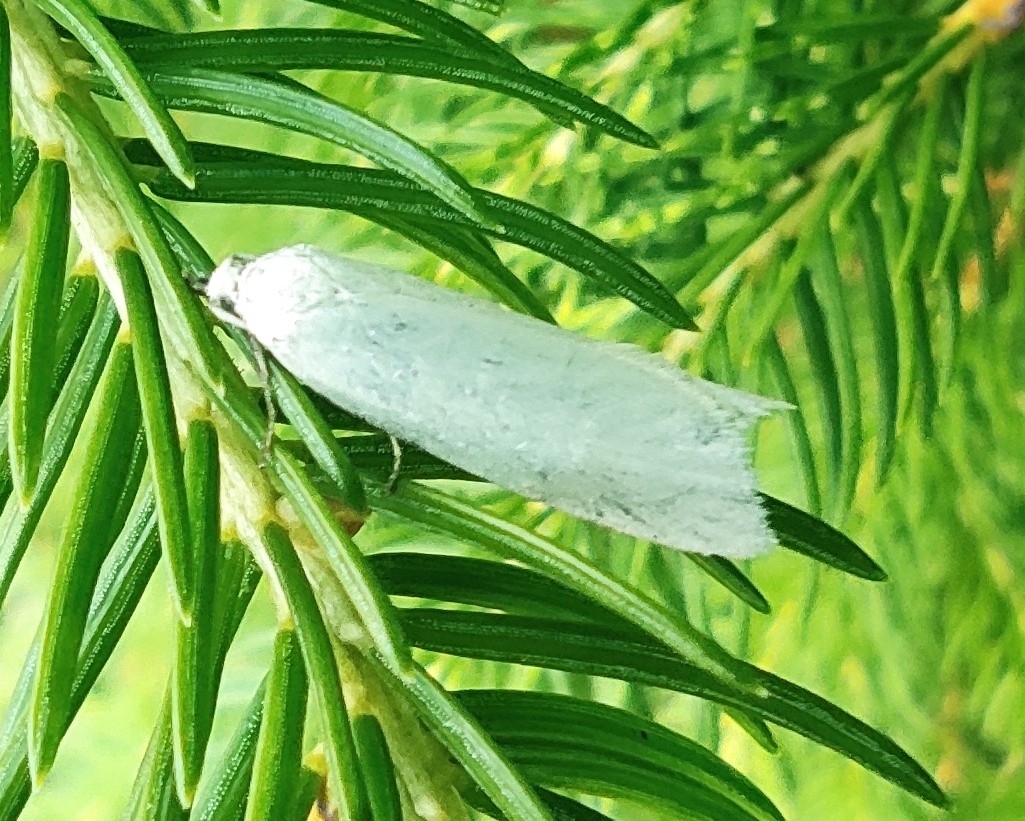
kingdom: Animalia
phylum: Arthropoda
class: Insecta
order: Lepidoptera
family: Tortricidae
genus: Eana
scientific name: Eana argentana
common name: Silver shade
